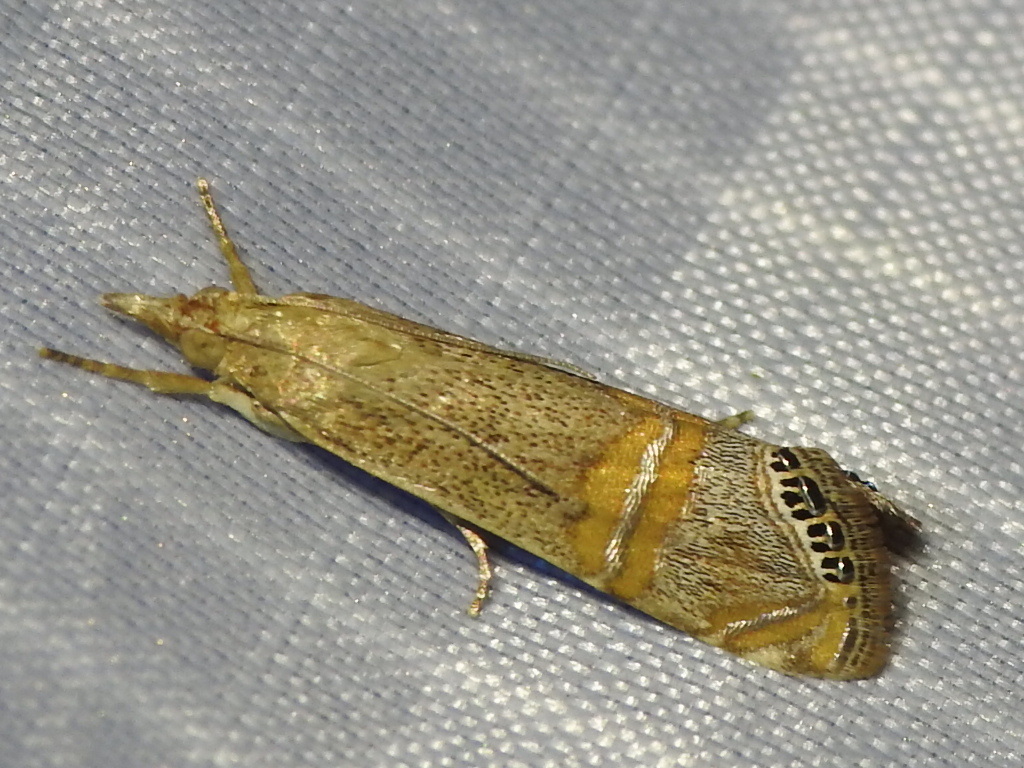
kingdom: Animalia
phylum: Arthropoda
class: Insecta
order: Lepidoptera
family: Crambidae
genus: Euchromius
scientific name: Euchromius ocellea
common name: Necklace veneer moth
